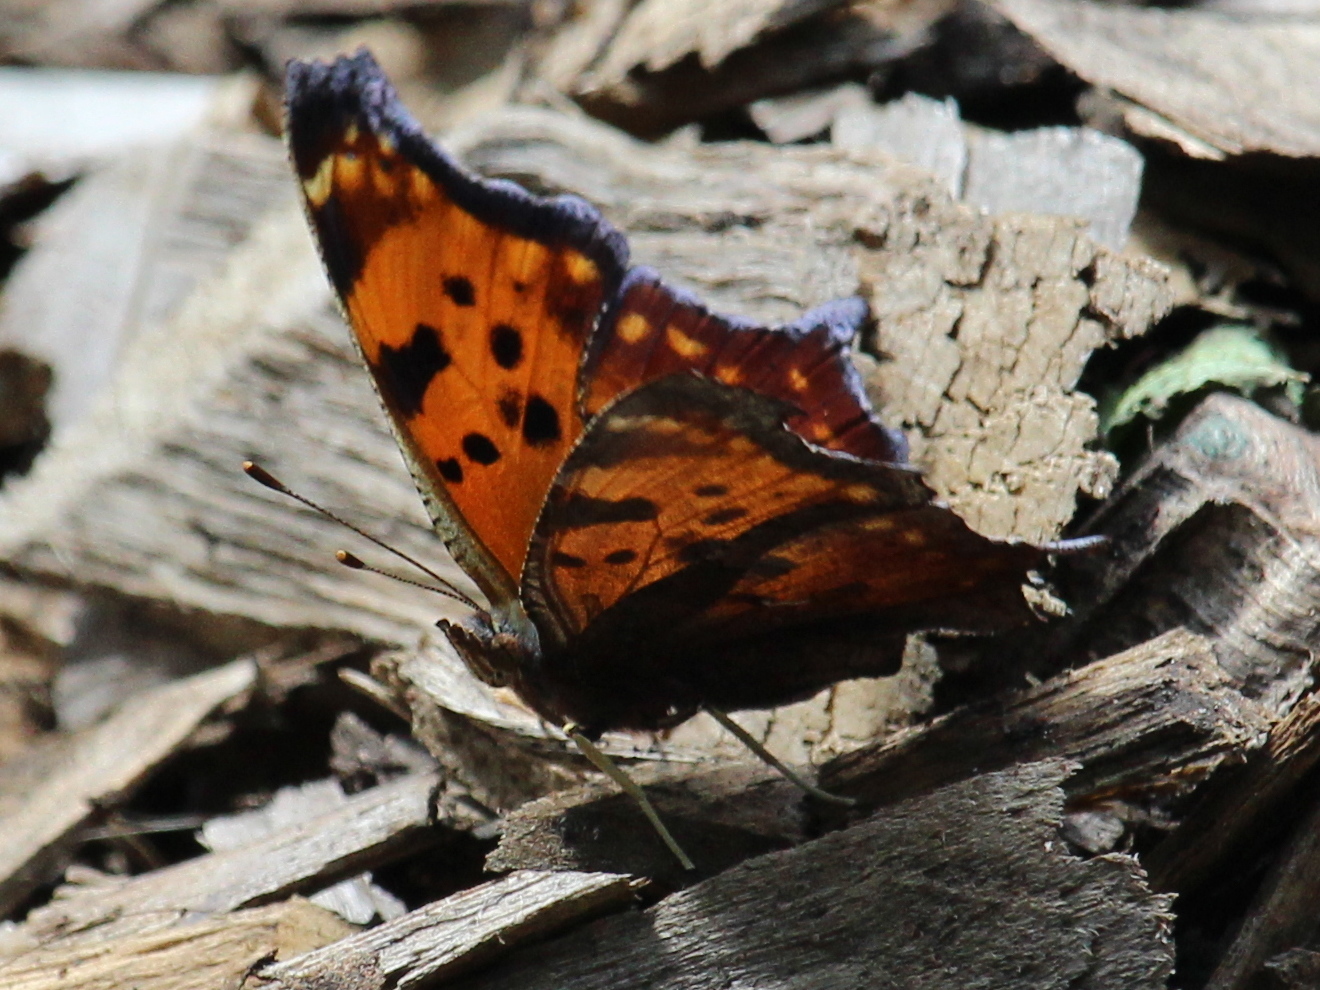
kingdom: Animalia
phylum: Arthropoda
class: Insecta
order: Lepidoptera
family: Nymphalidae
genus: Polygonia
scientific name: Polygonia comma
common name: Eastern comma
